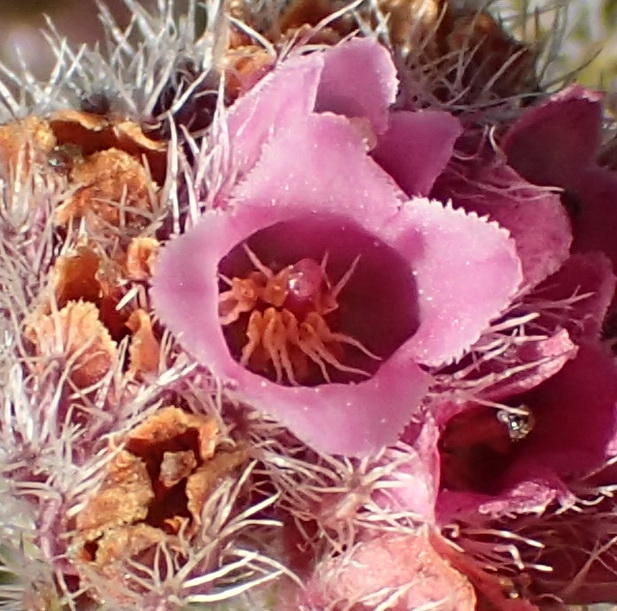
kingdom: Plantae
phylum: Tracheophyta
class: Magnoliopsida
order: Ericales
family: Ericaceae
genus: Erica
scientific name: Erica solandra
